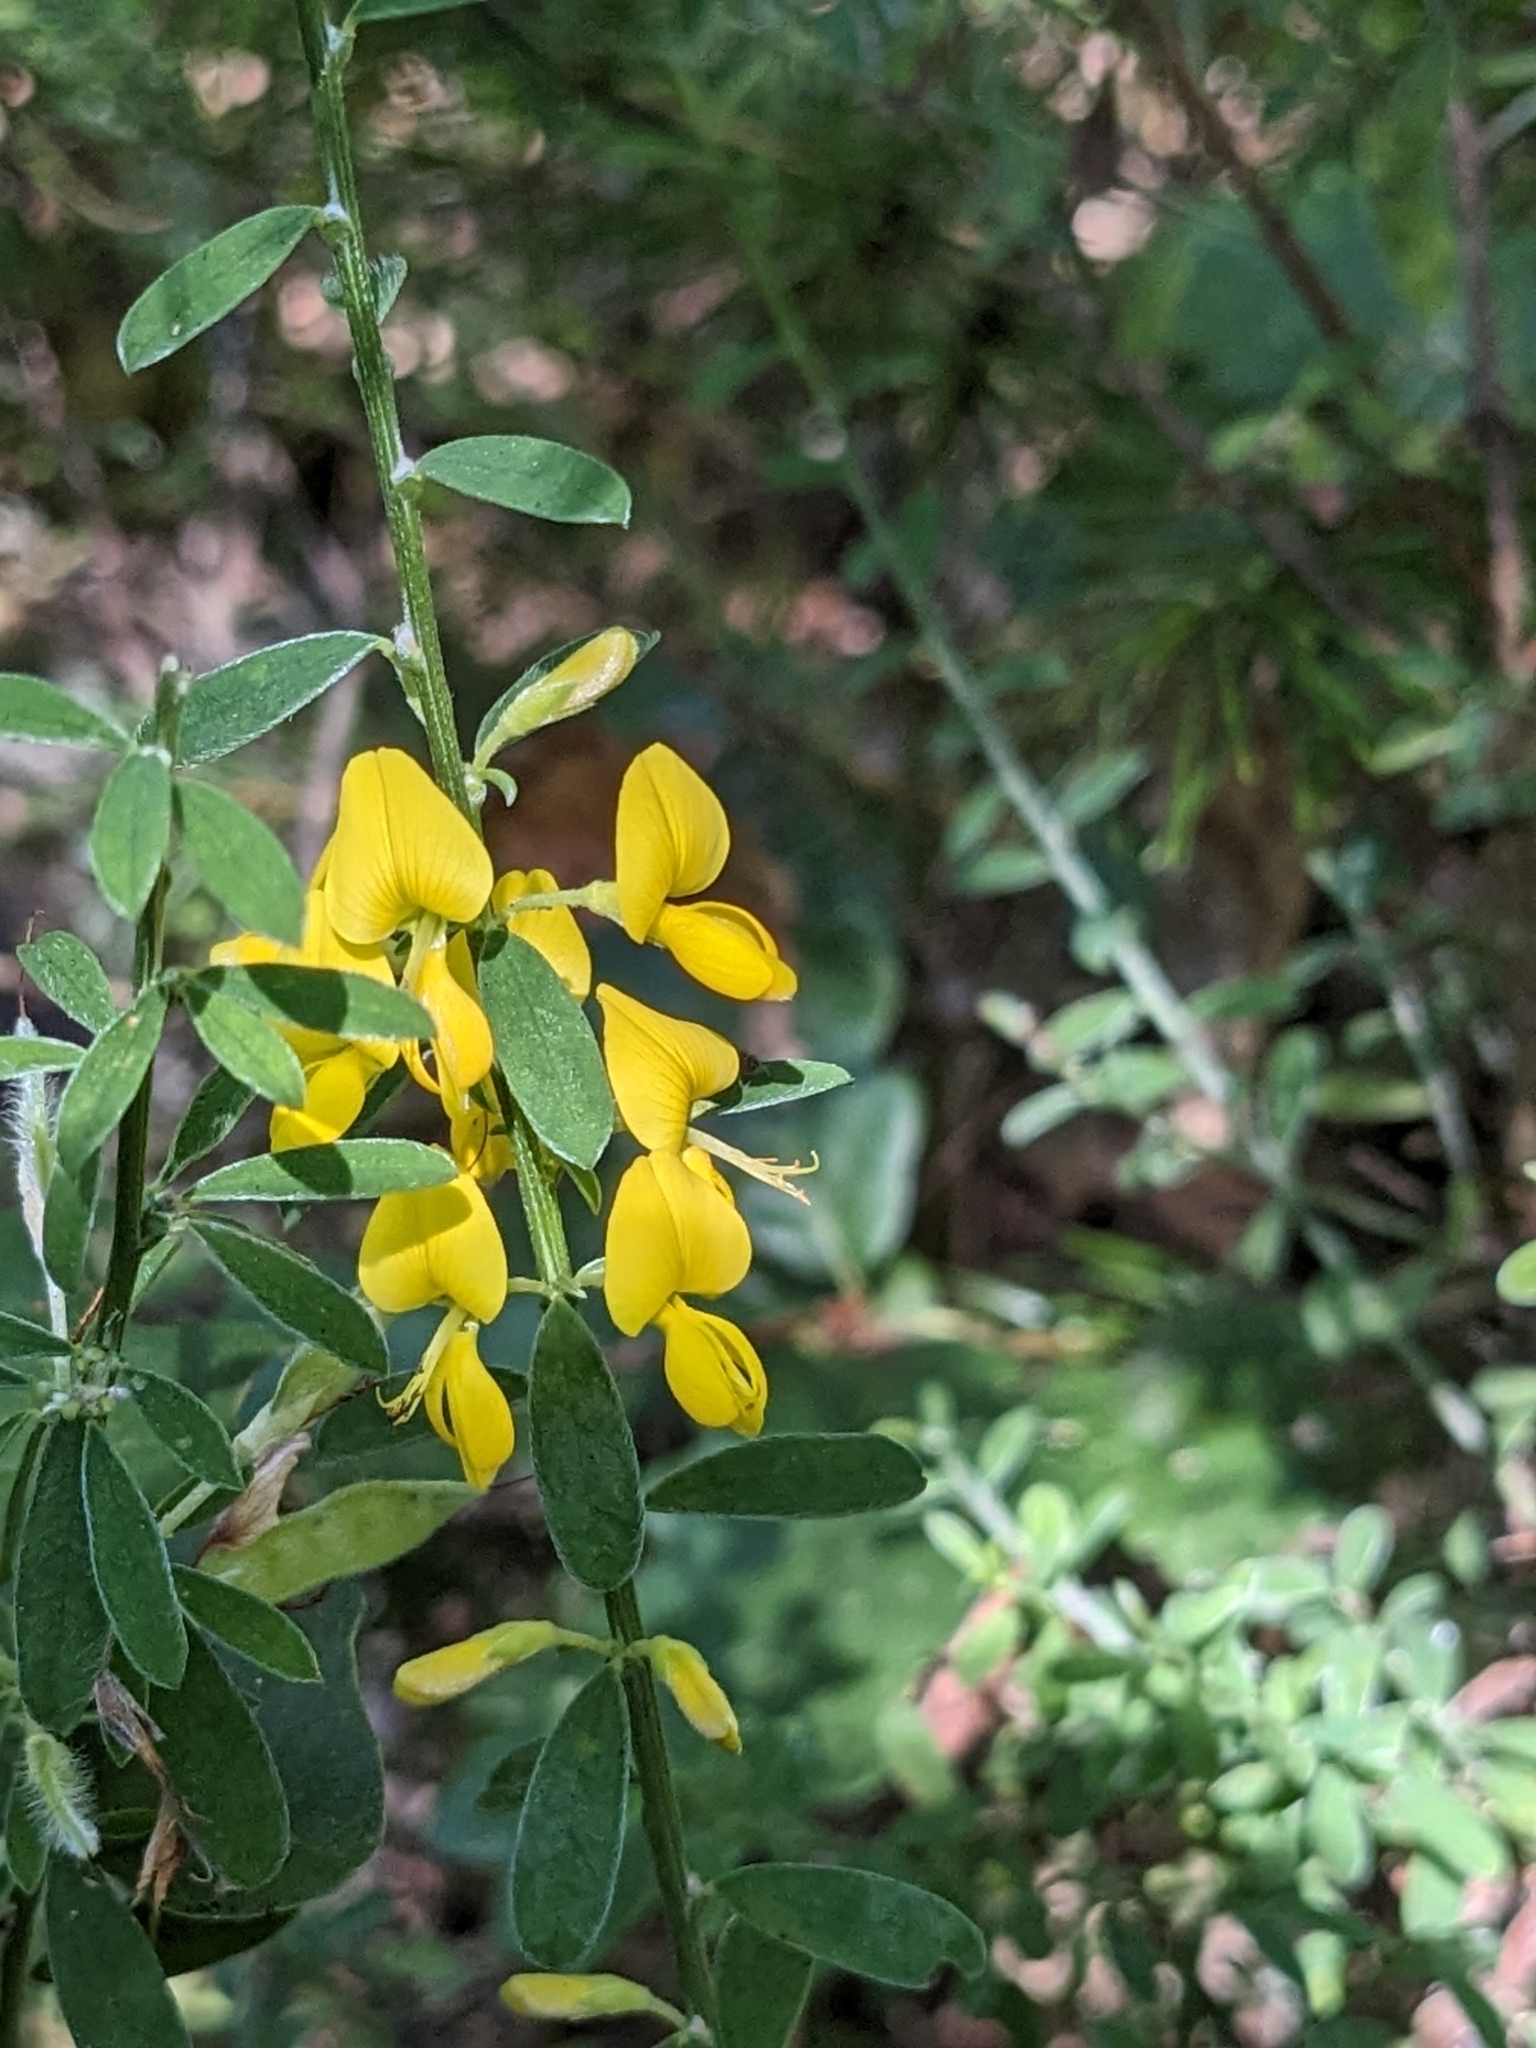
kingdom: Plantae
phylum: Tracheophyta
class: Magnoliopsida
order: Fabales
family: Fabaceae
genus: Genista
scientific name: Genista pilosa
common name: Hairy greenweed
